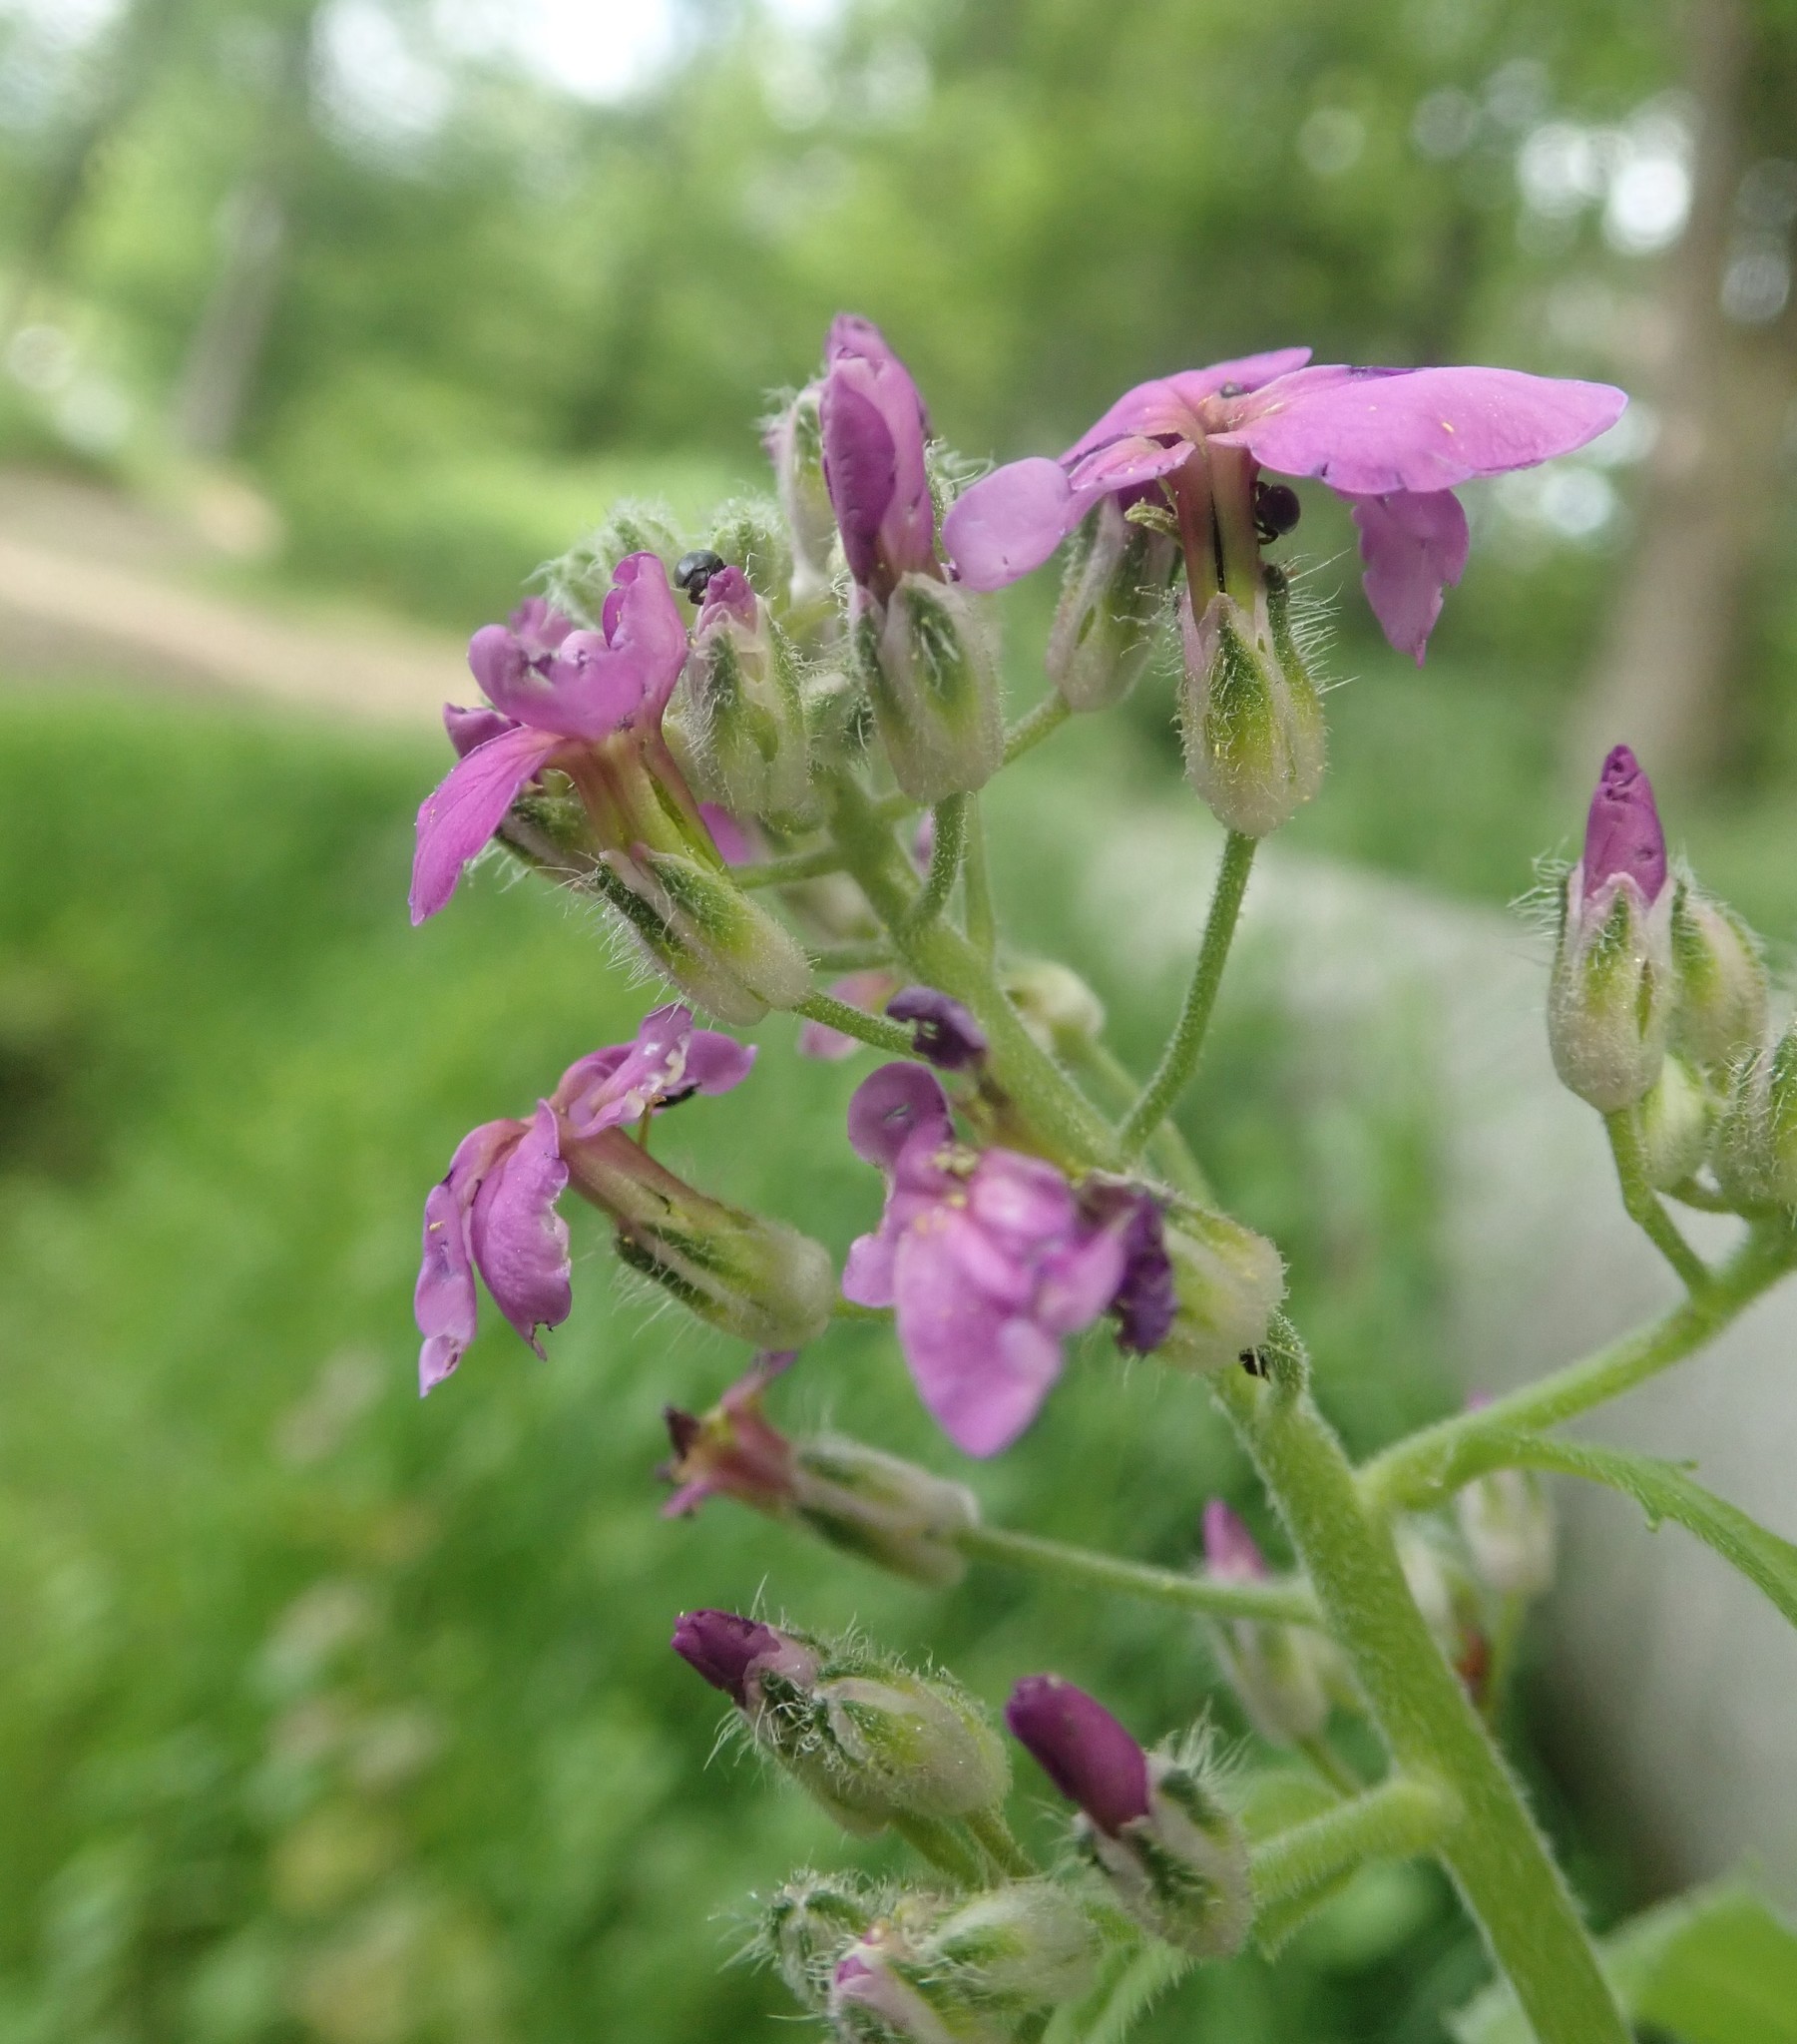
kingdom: Plantae
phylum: Tracheophyta
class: Magnoliopsida
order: Brassicales
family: Brassicaceae
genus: Hesperis
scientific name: Hesperis matronalis
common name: Dame's-violet
